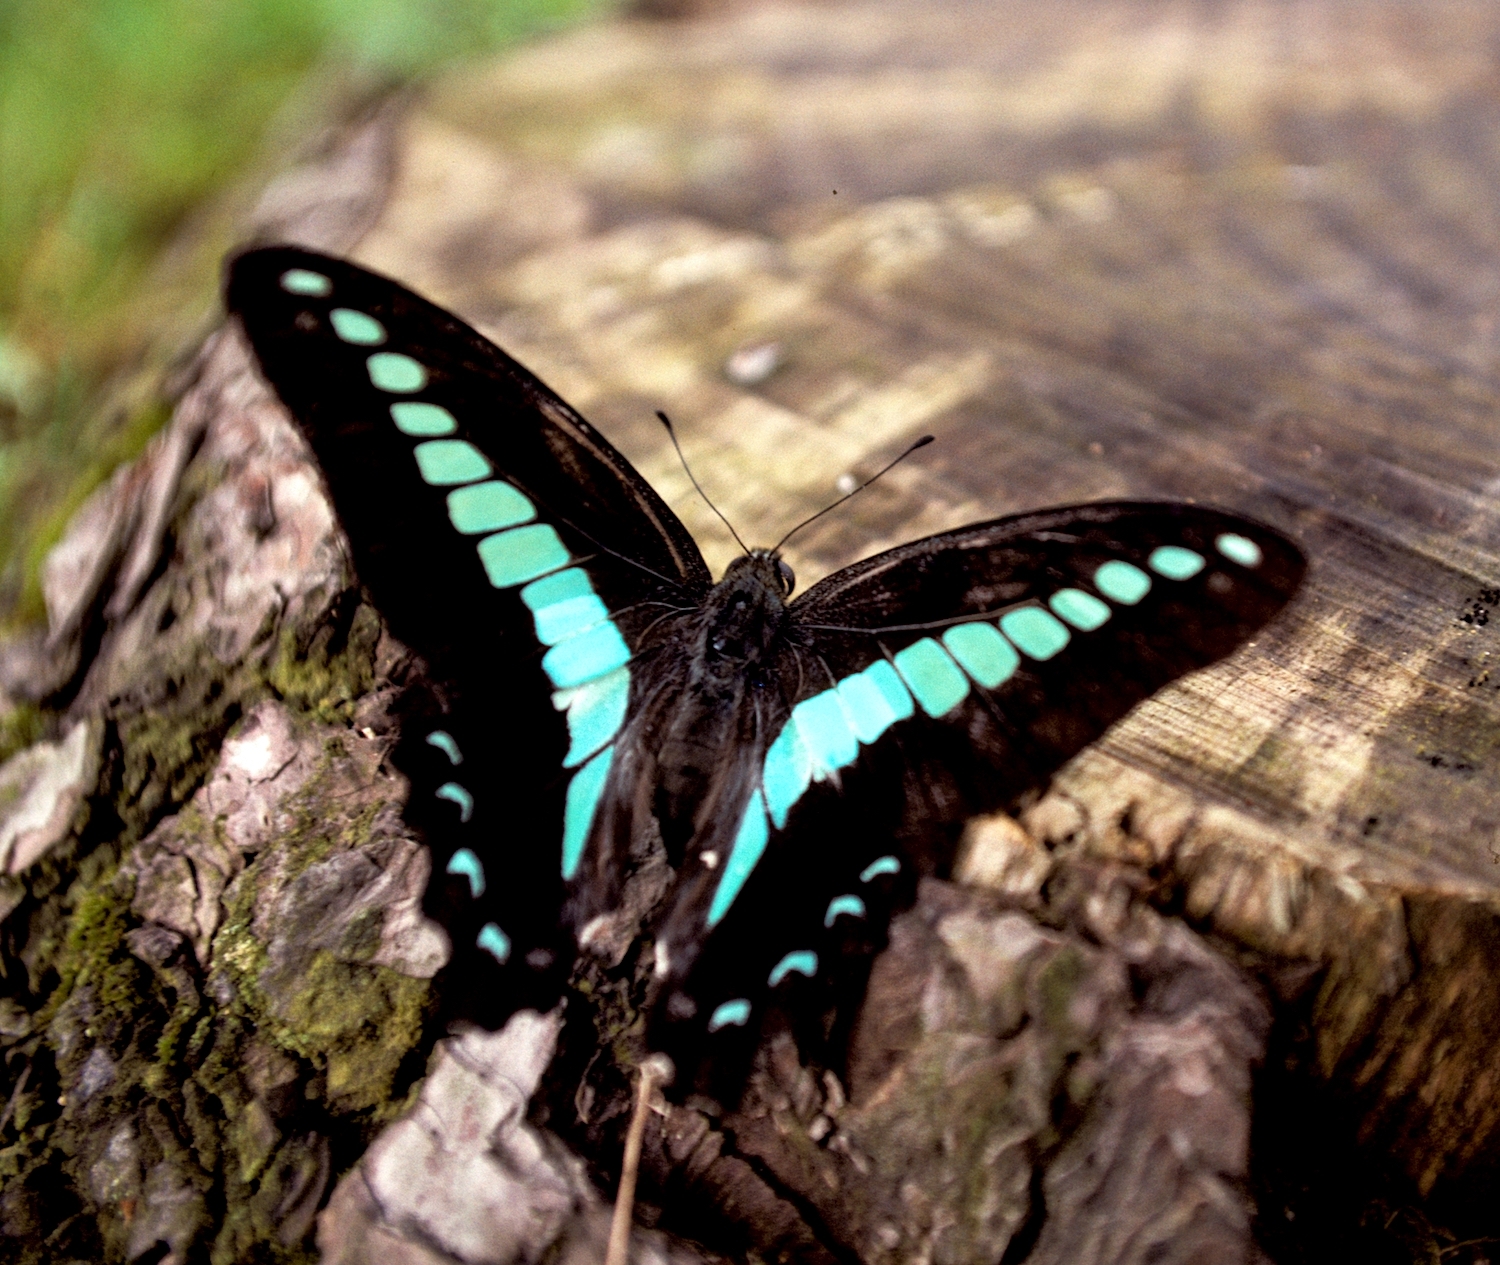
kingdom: Fungi
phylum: Ascomycota
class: Sordariomycetes
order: Microascales
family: Microascaceae
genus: Graphium
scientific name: Graphium sarpedon
